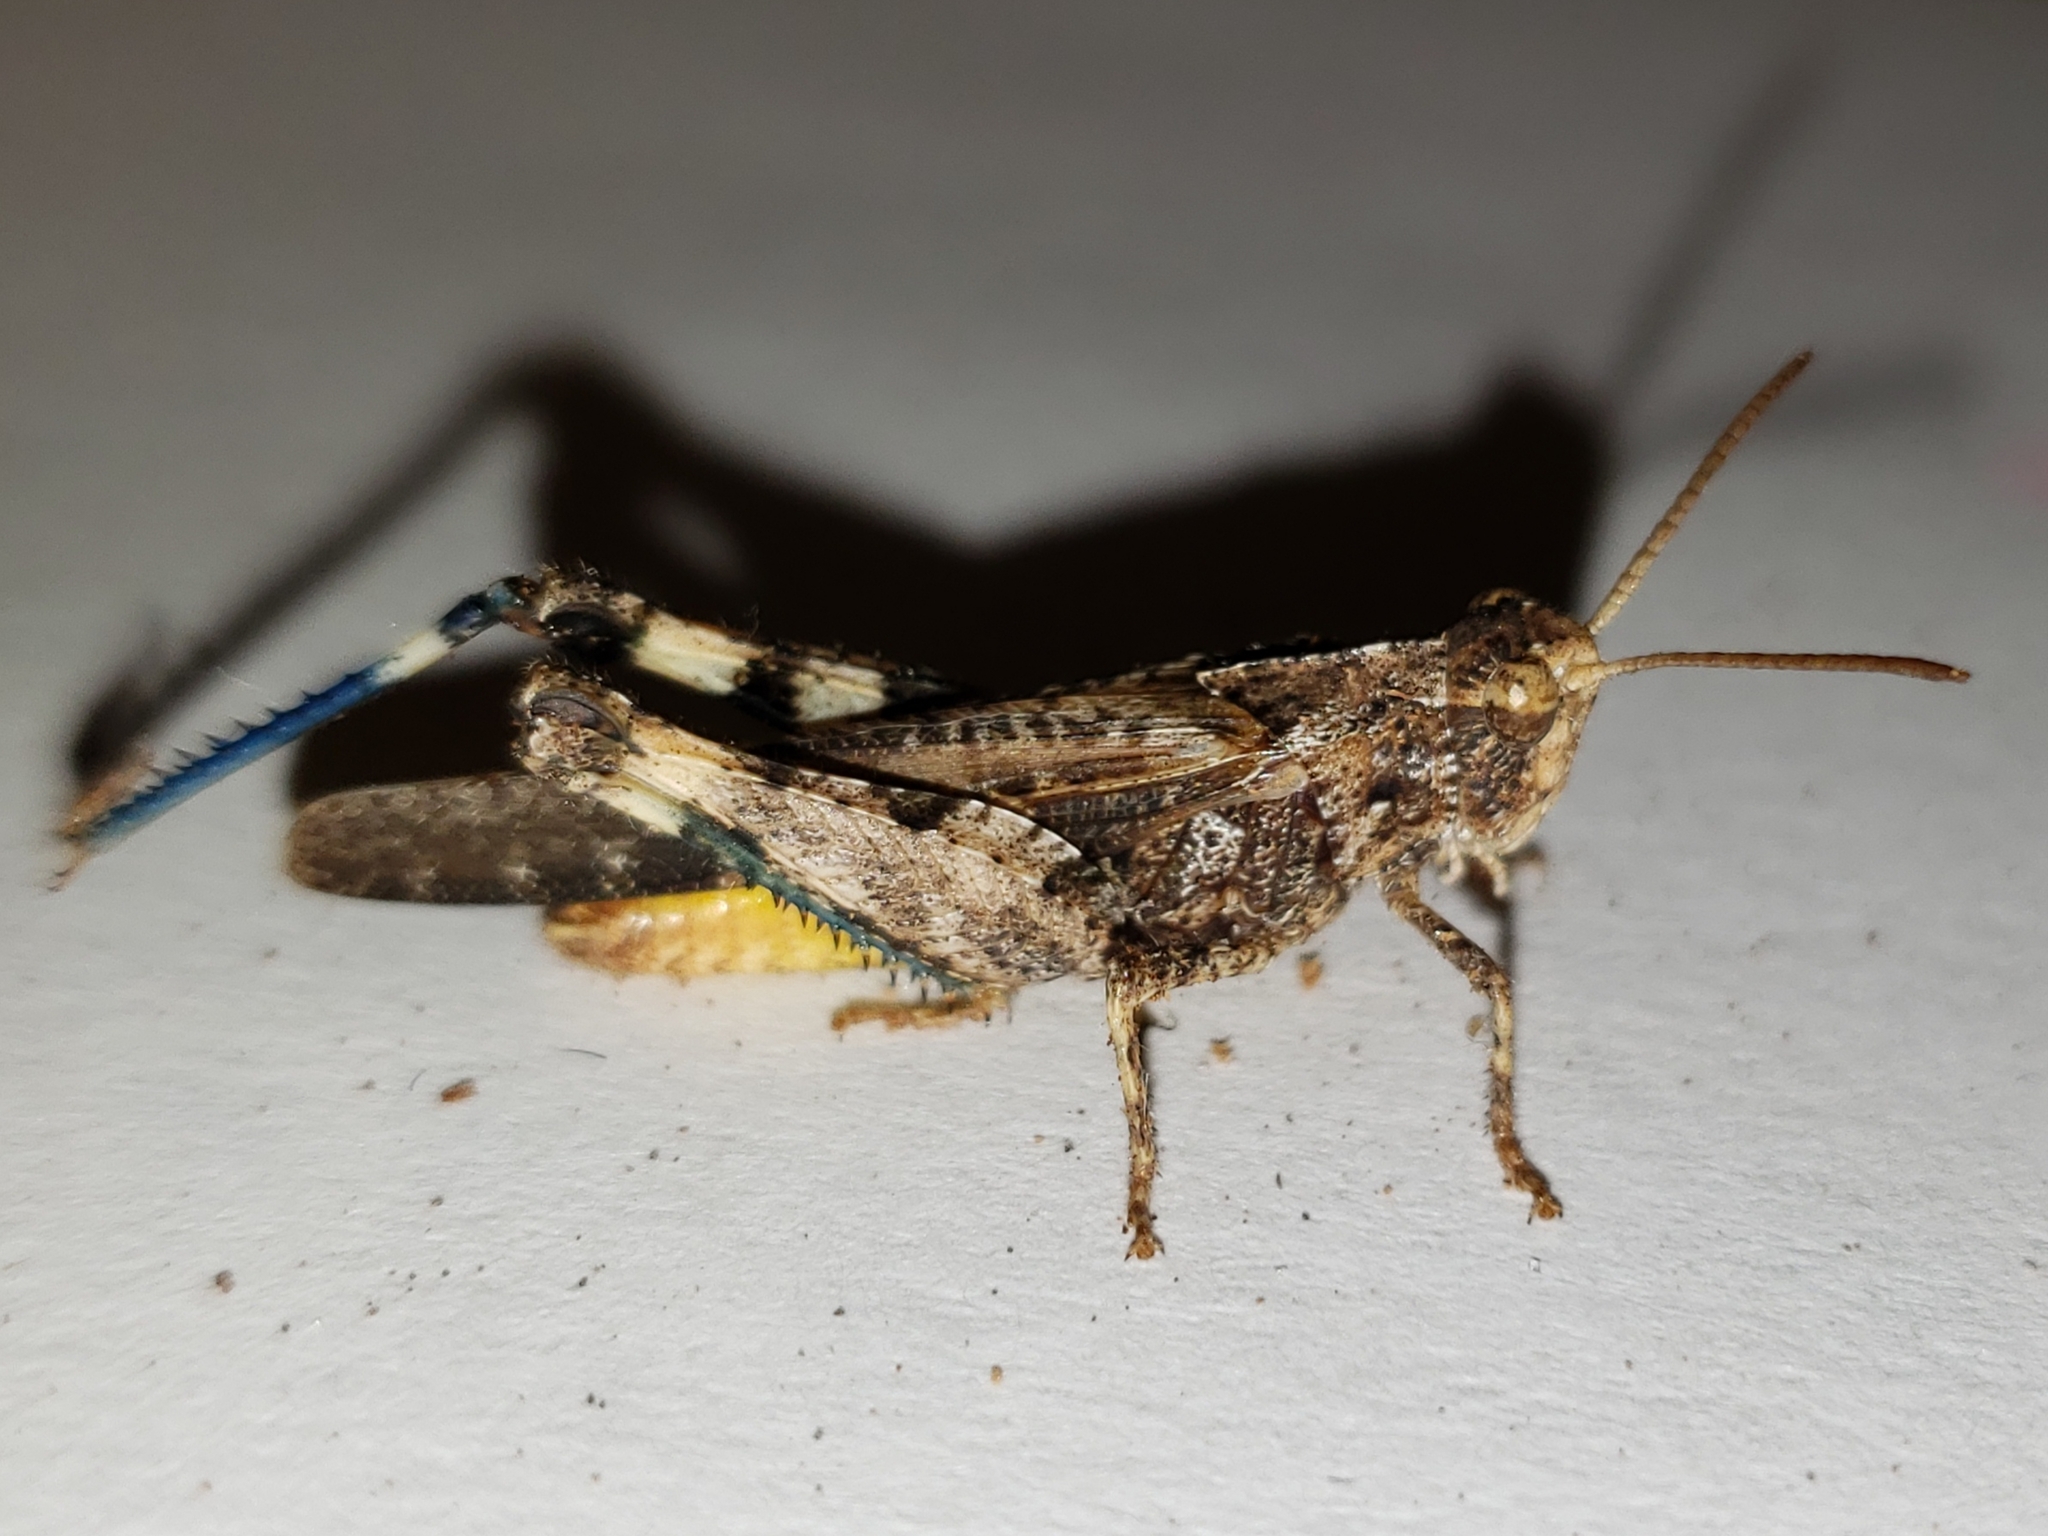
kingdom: Animalia
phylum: Arthropoda
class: Insecta
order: Orthoptera
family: Acrididae
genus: Chortophaga
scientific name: Chortophaga australior
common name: Southern green-striped grasshopper
